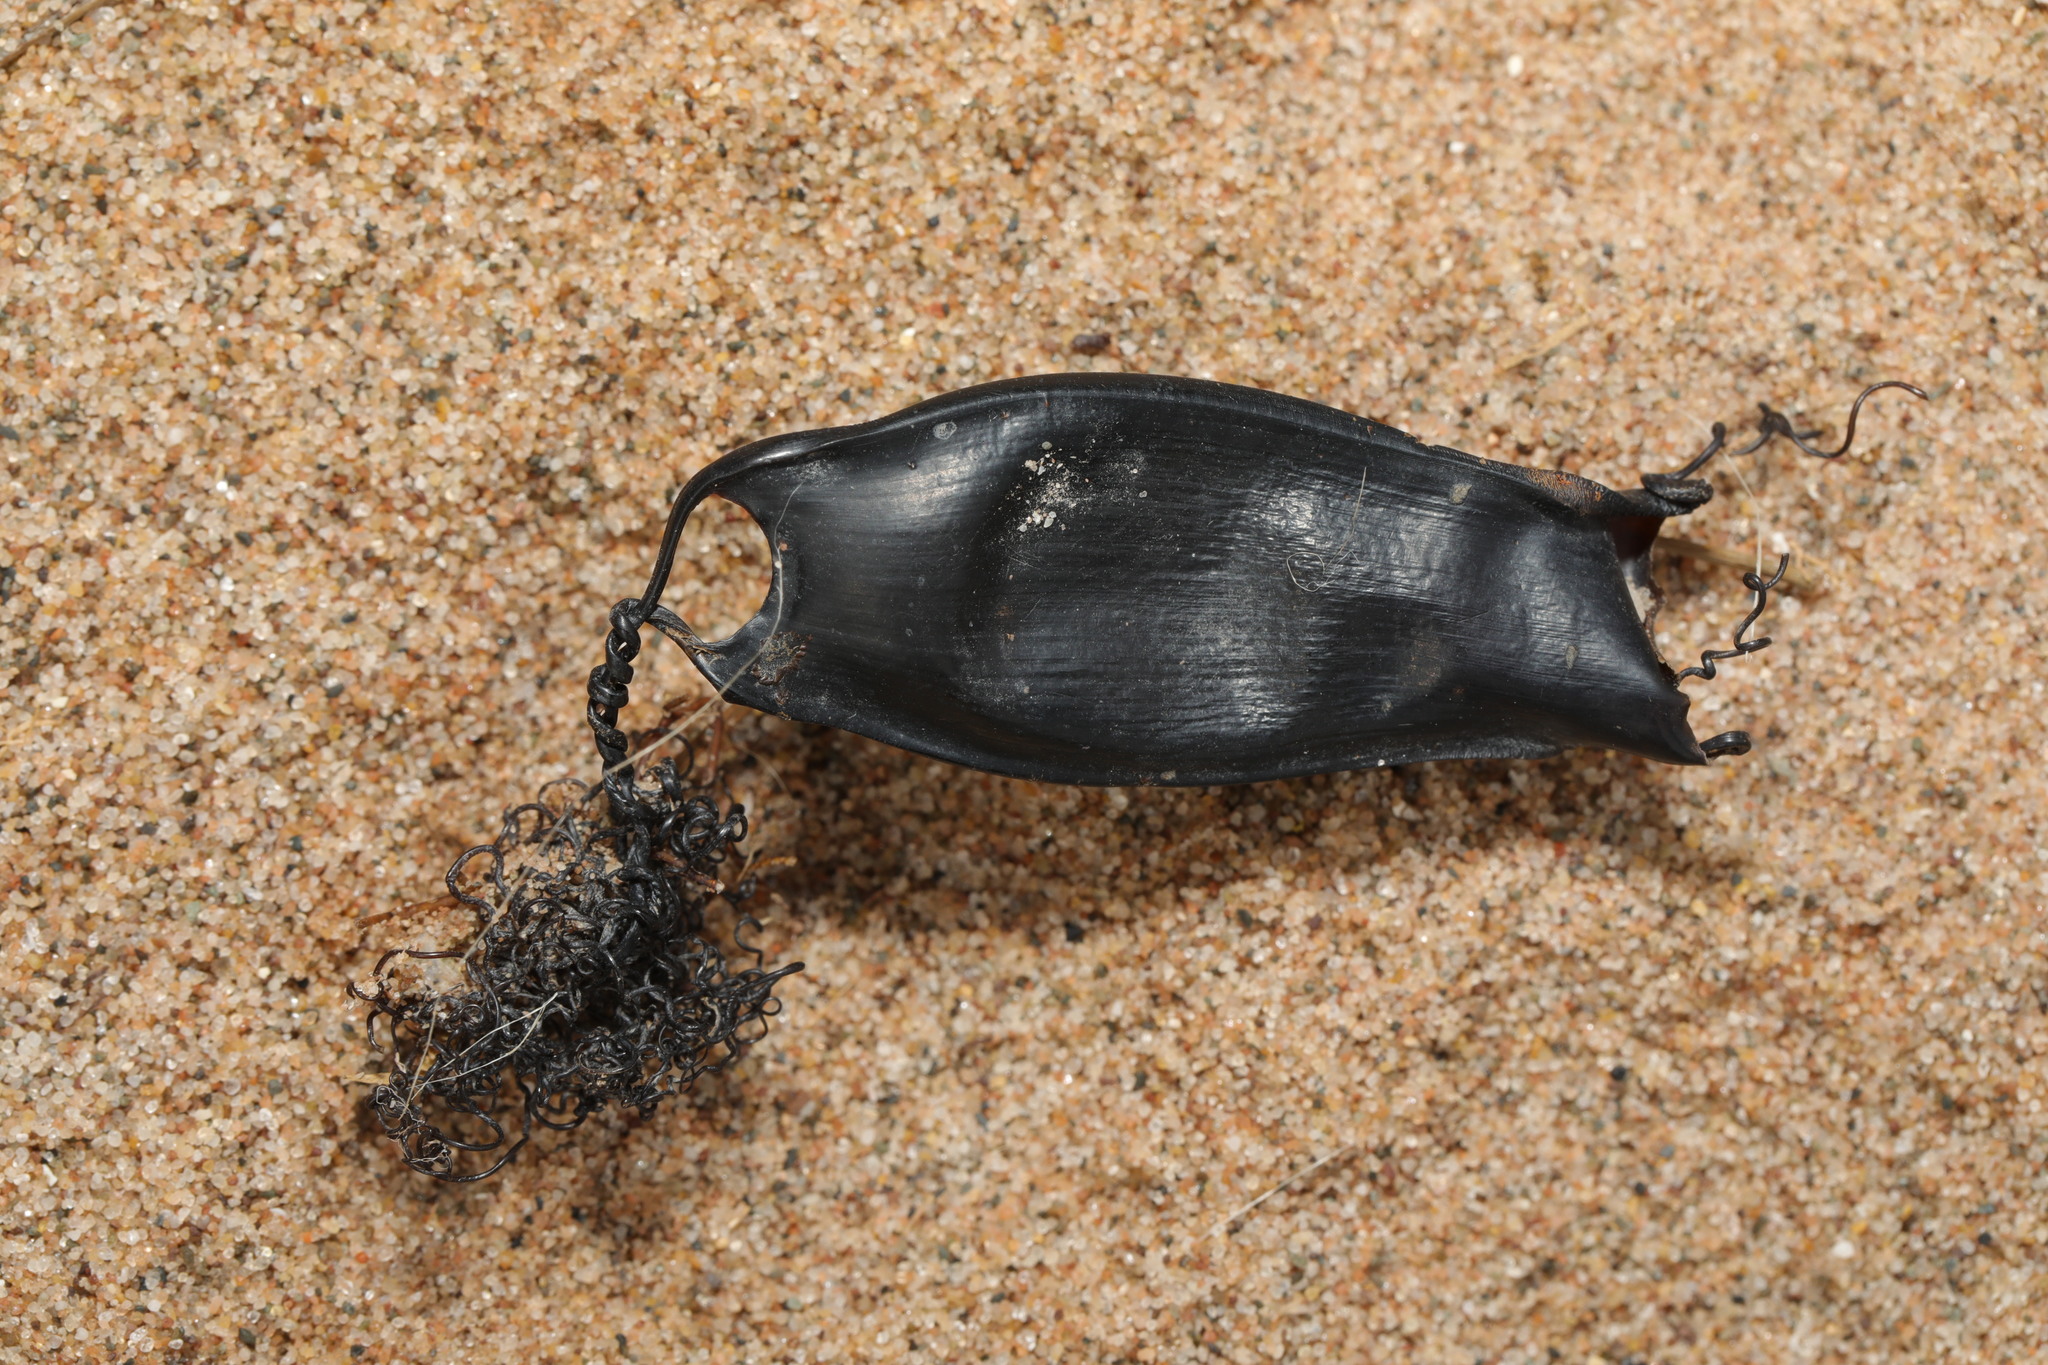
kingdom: Animalia
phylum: Chordata
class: Elasmobranchii
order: Carcharhiniformes
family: Scyliorhinidae
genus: Scyliorhinus
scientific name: Scyliorhinus canicula
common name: Lesser spotted dogfish
